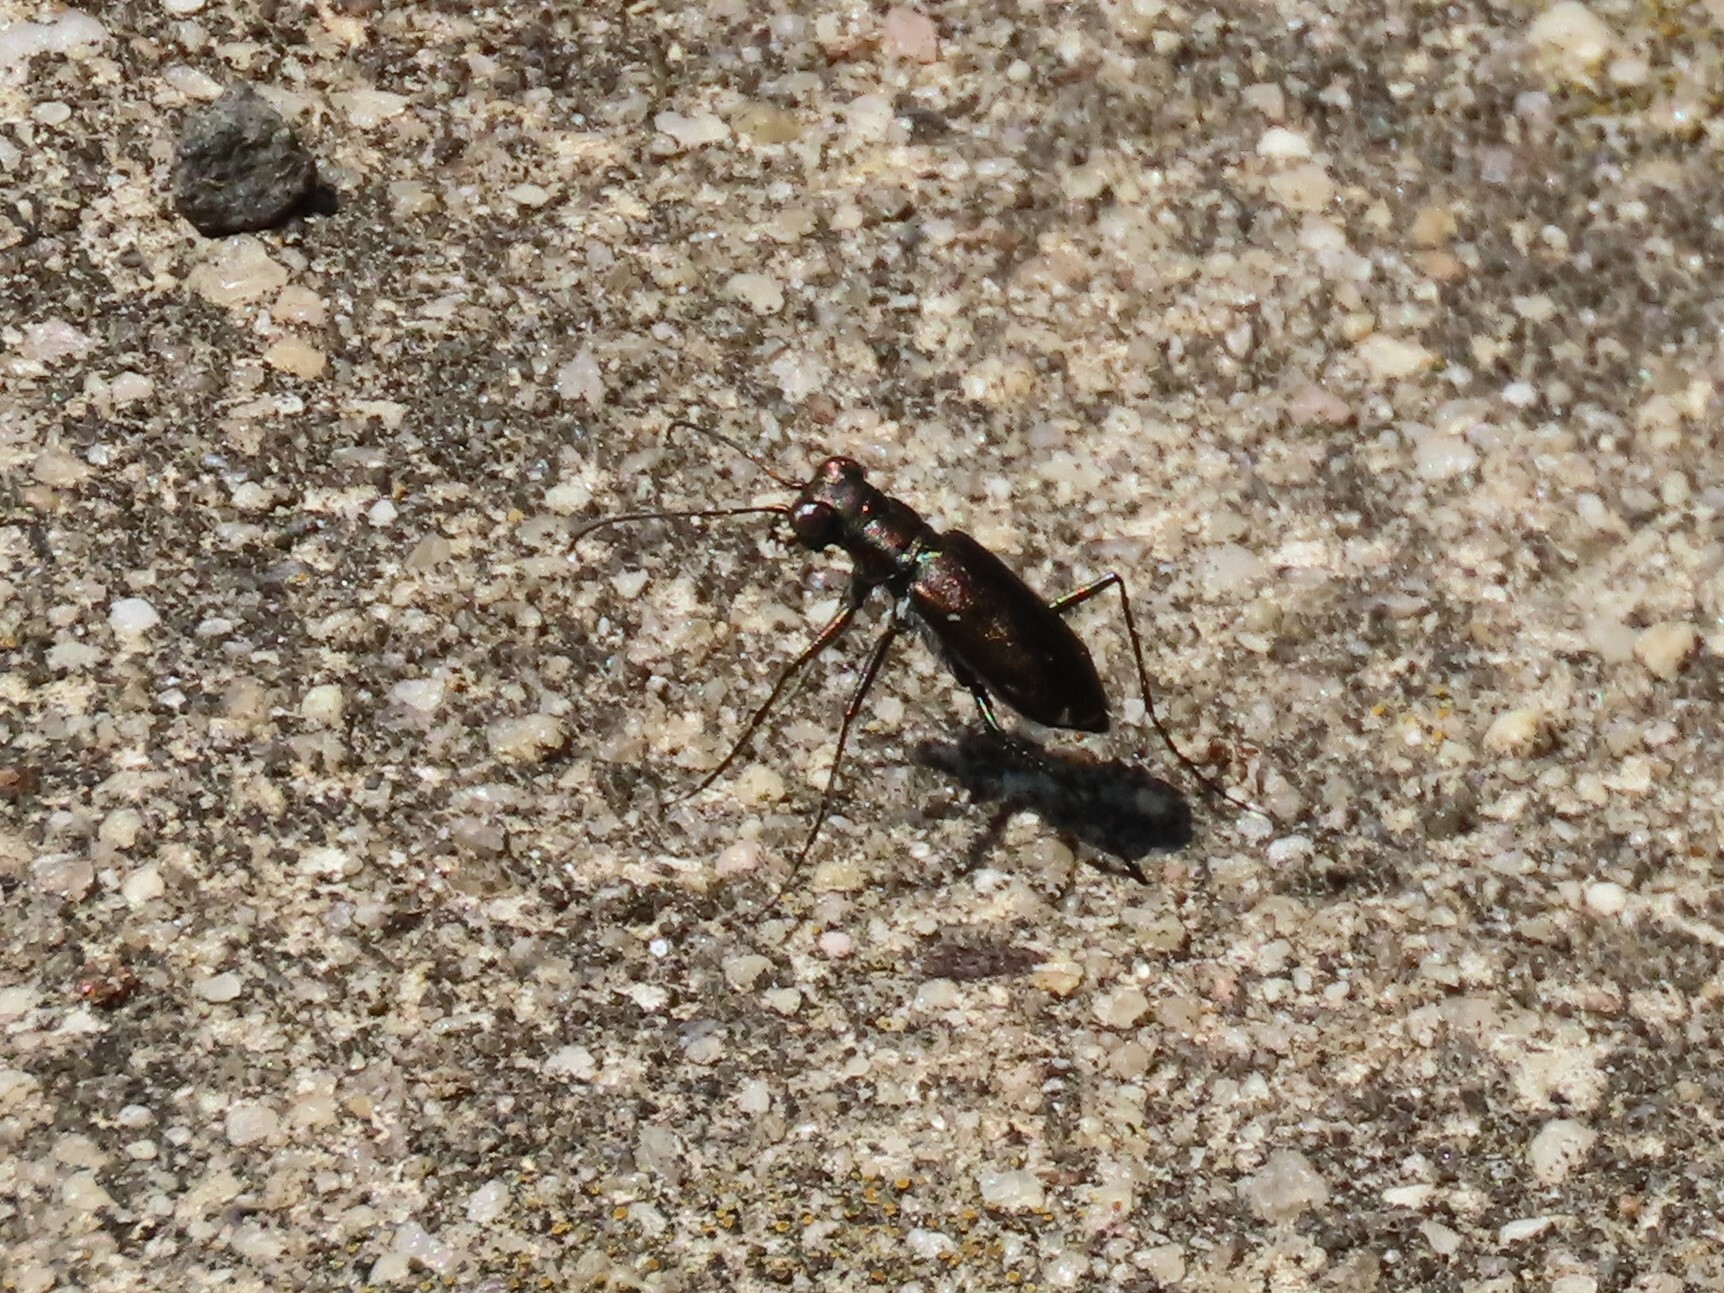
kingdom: Animalia
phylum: Arthropoda
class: Insecta
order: Coleoptera
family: Carabidae
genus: Cicindela
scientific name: Cicindela punctulata
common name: Punctured tiger beetle
